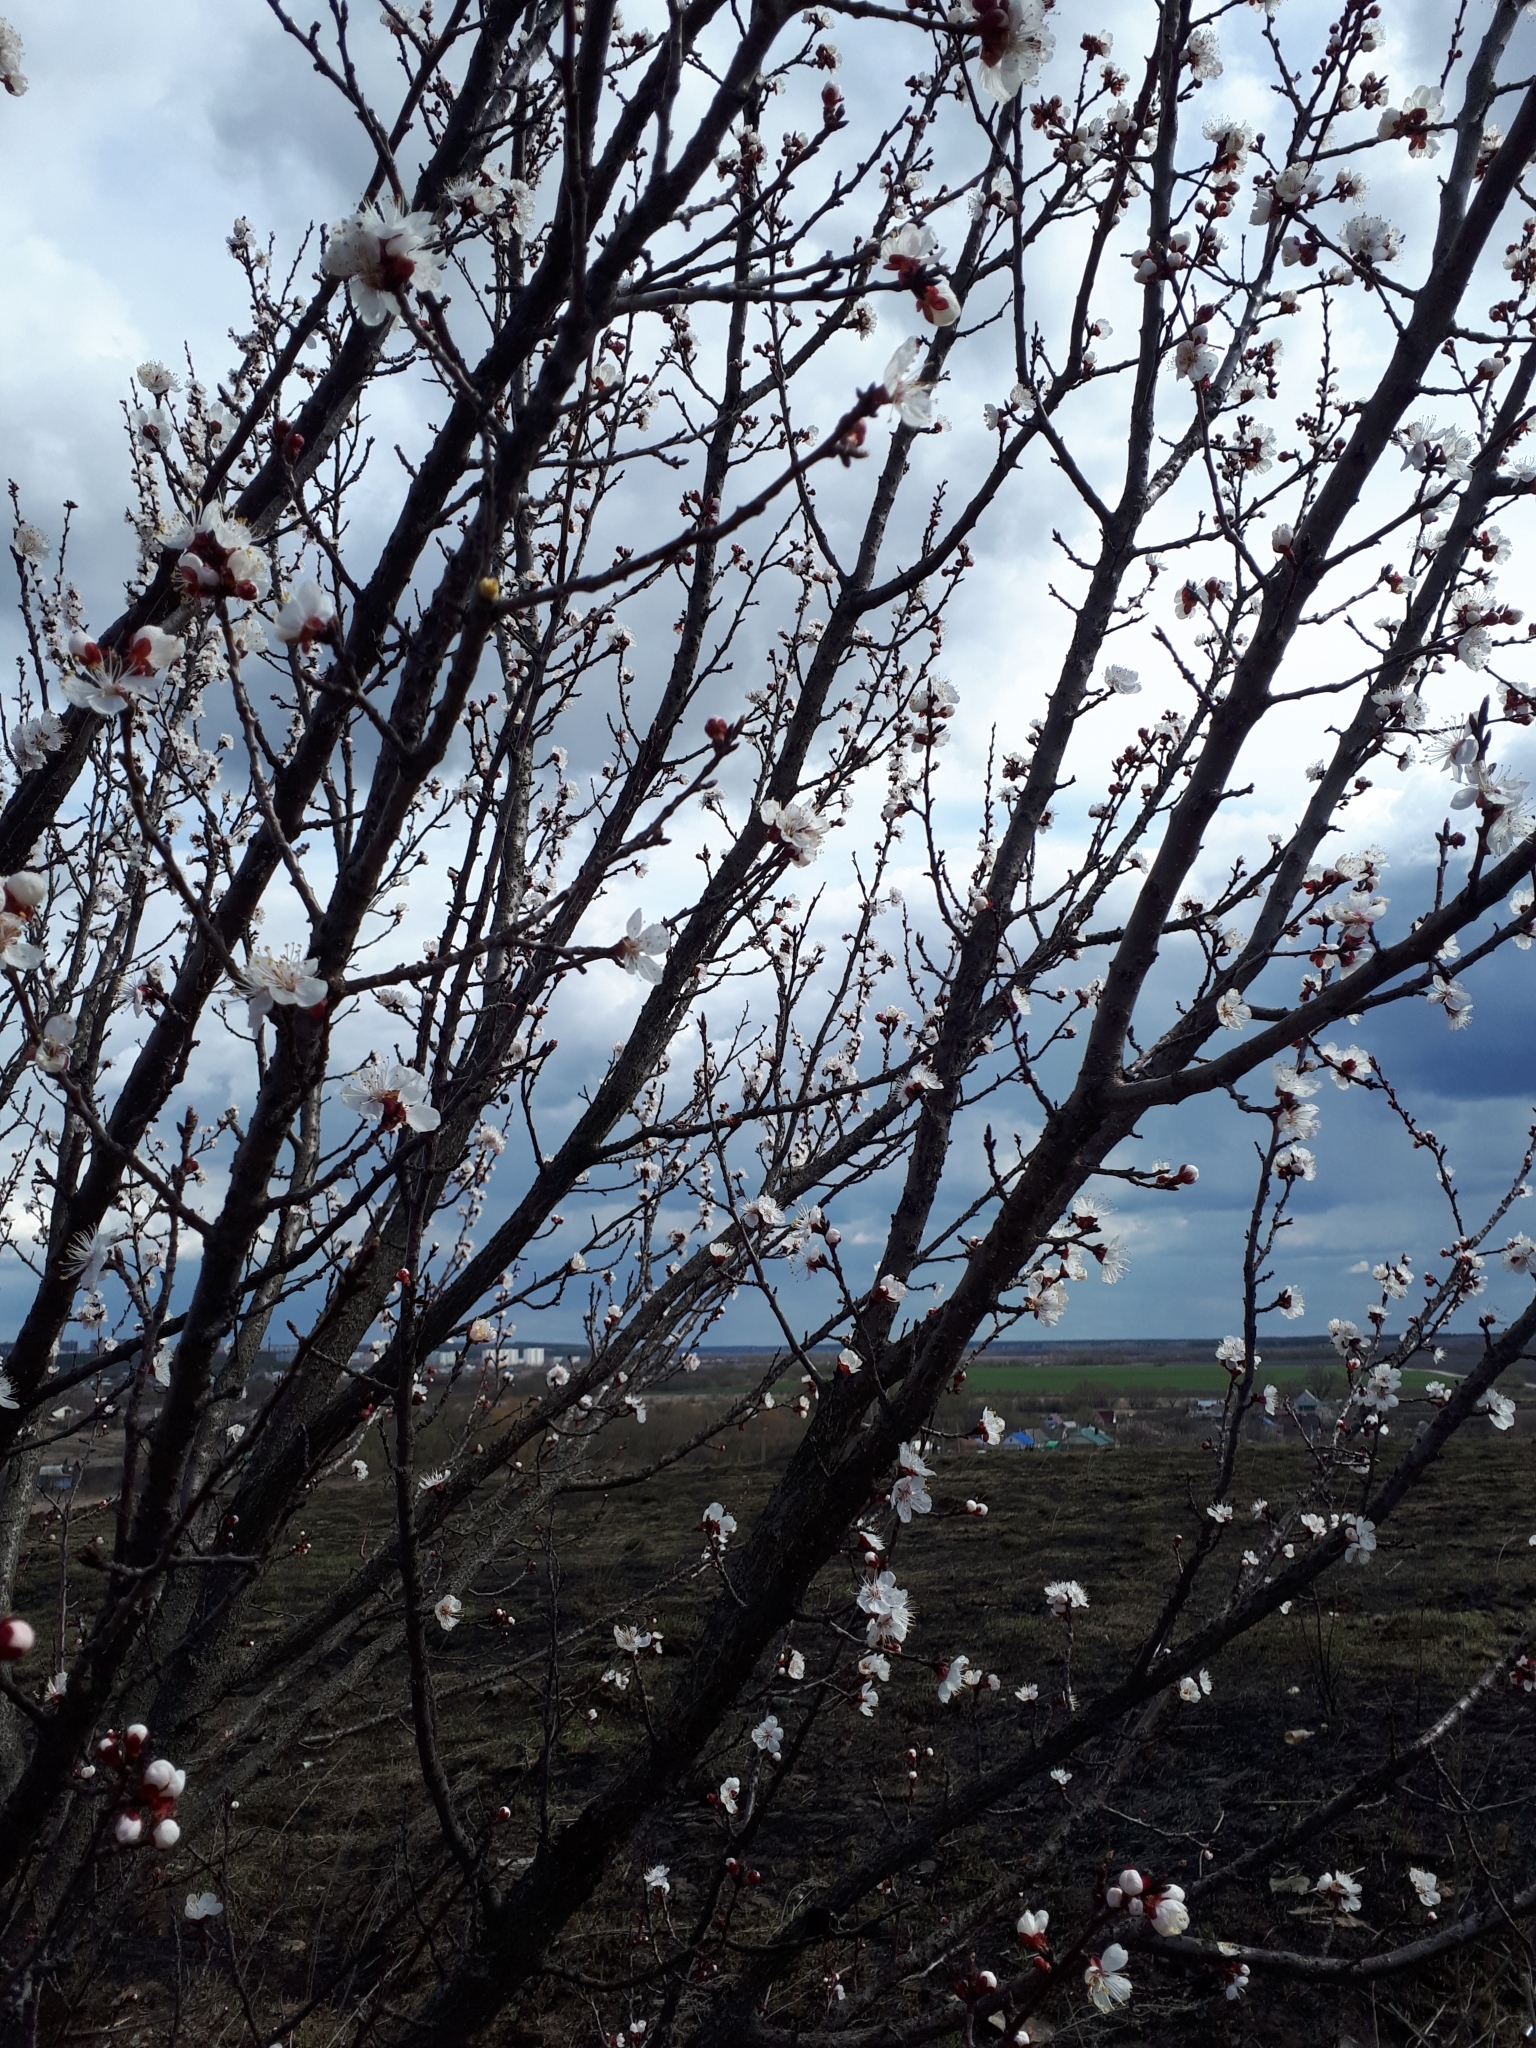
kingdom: Plantae
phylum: Tracheophyta
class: Magnoliopsida
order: Rosales
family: Rosaceae
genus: Prunus
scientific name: Prunus armeniaca
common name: Apricot
